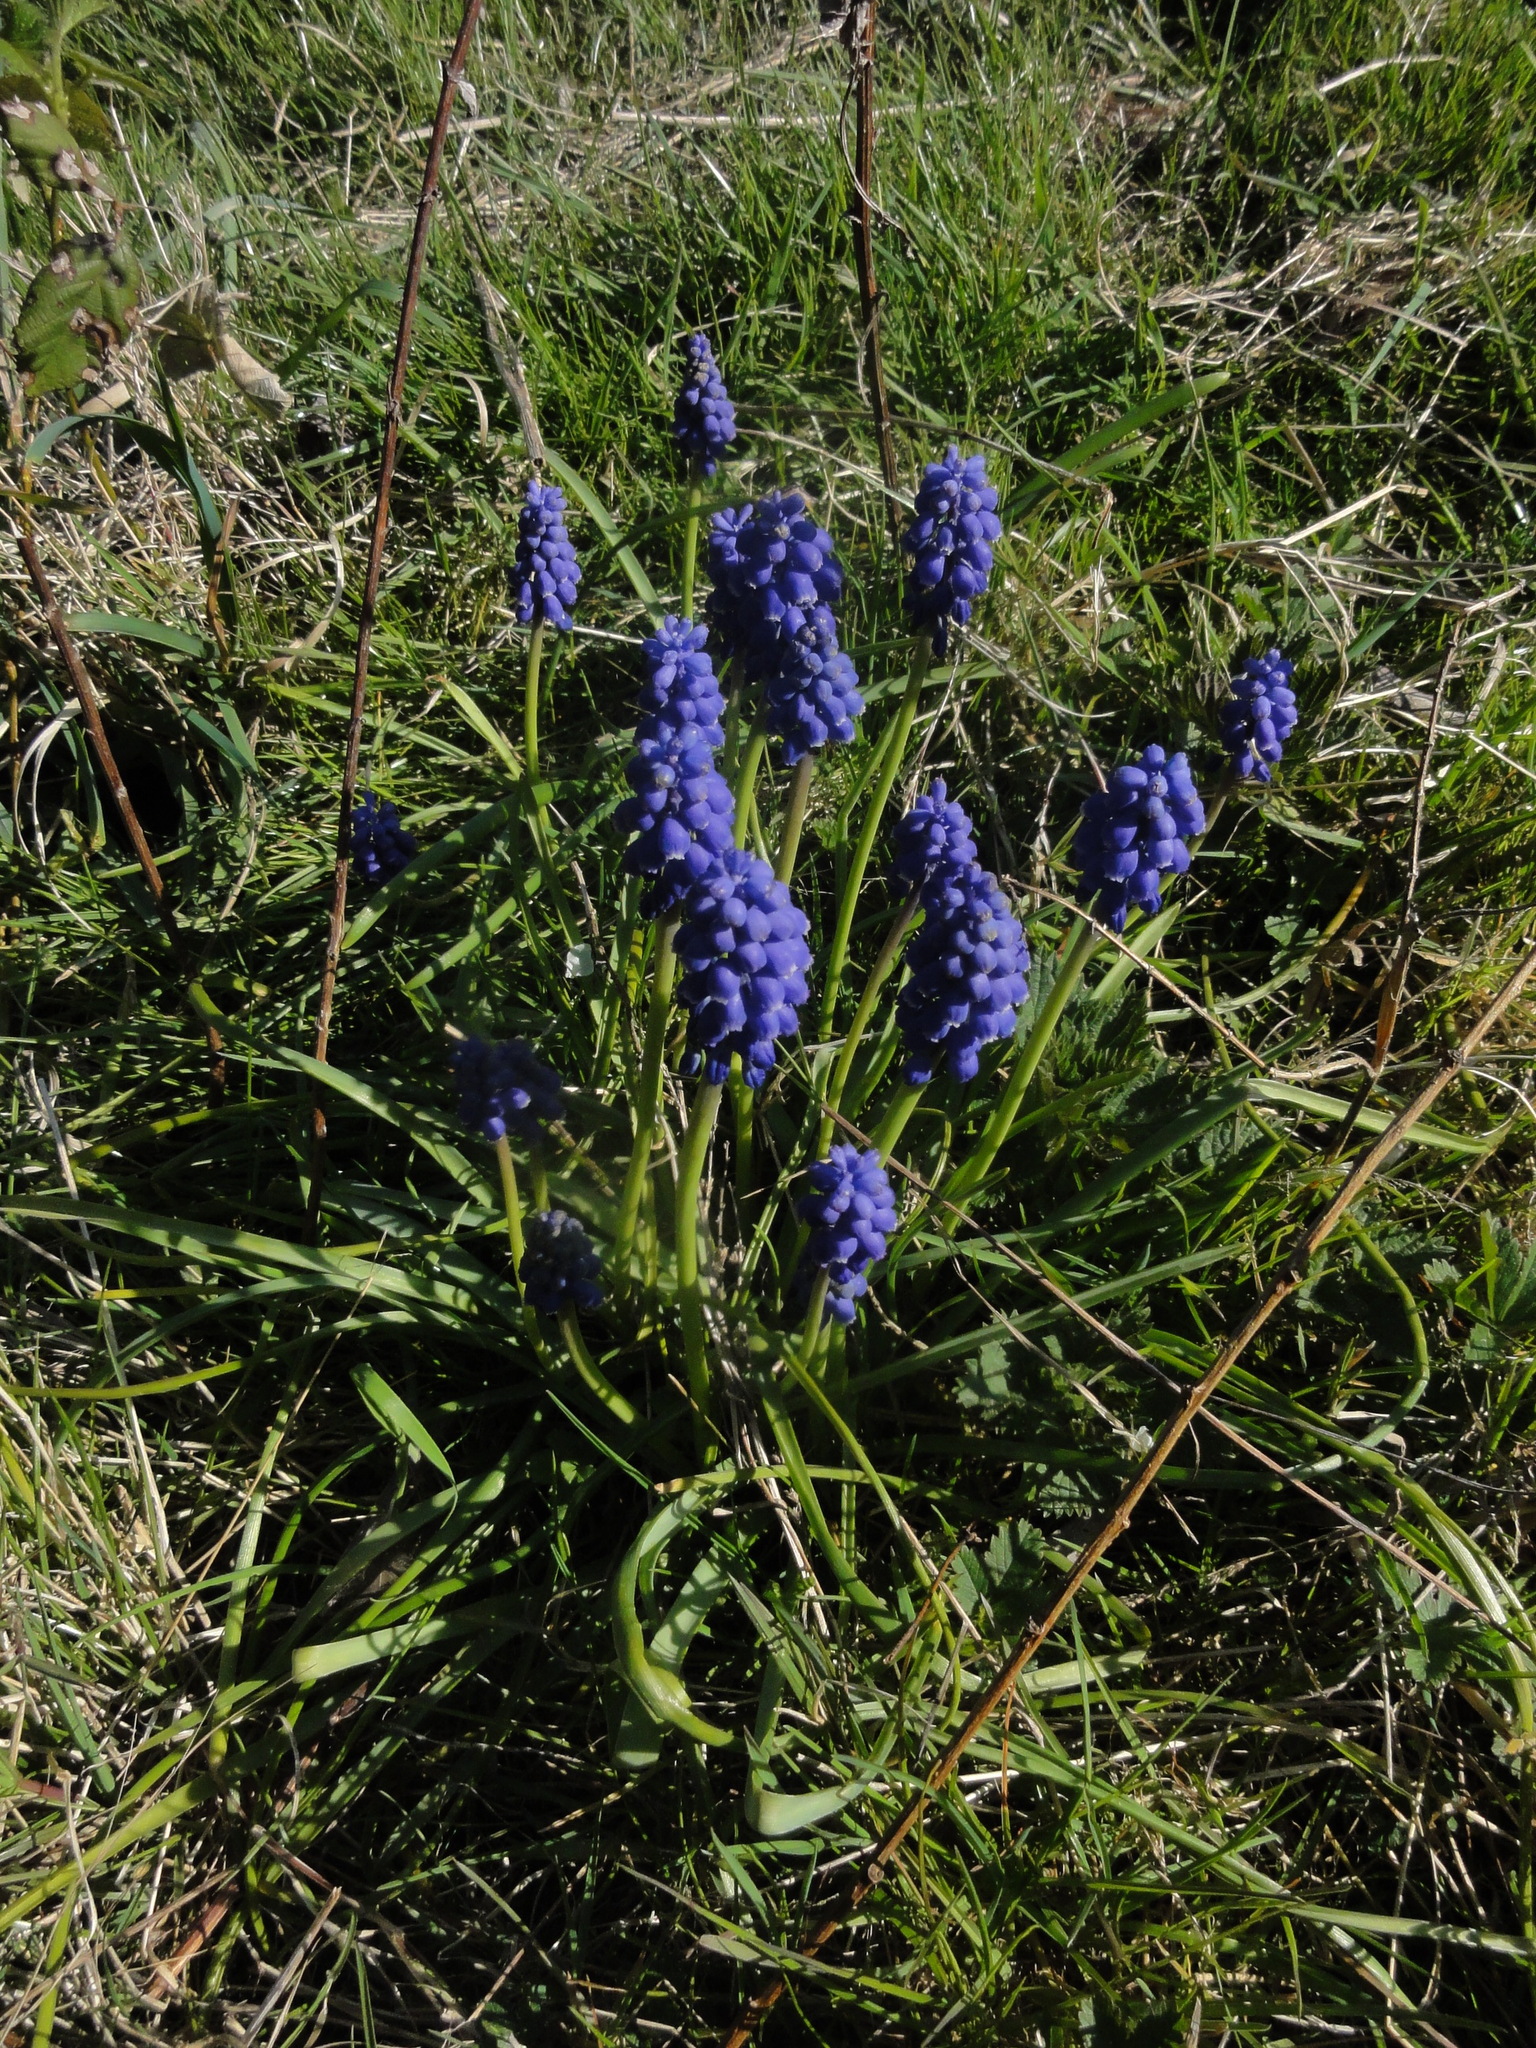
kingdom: Plantae
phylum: Tracheophyta
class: Liliopsida
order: Asparagales
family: Asparagaceae
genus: Muscari
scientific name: Muscari armeniacum
